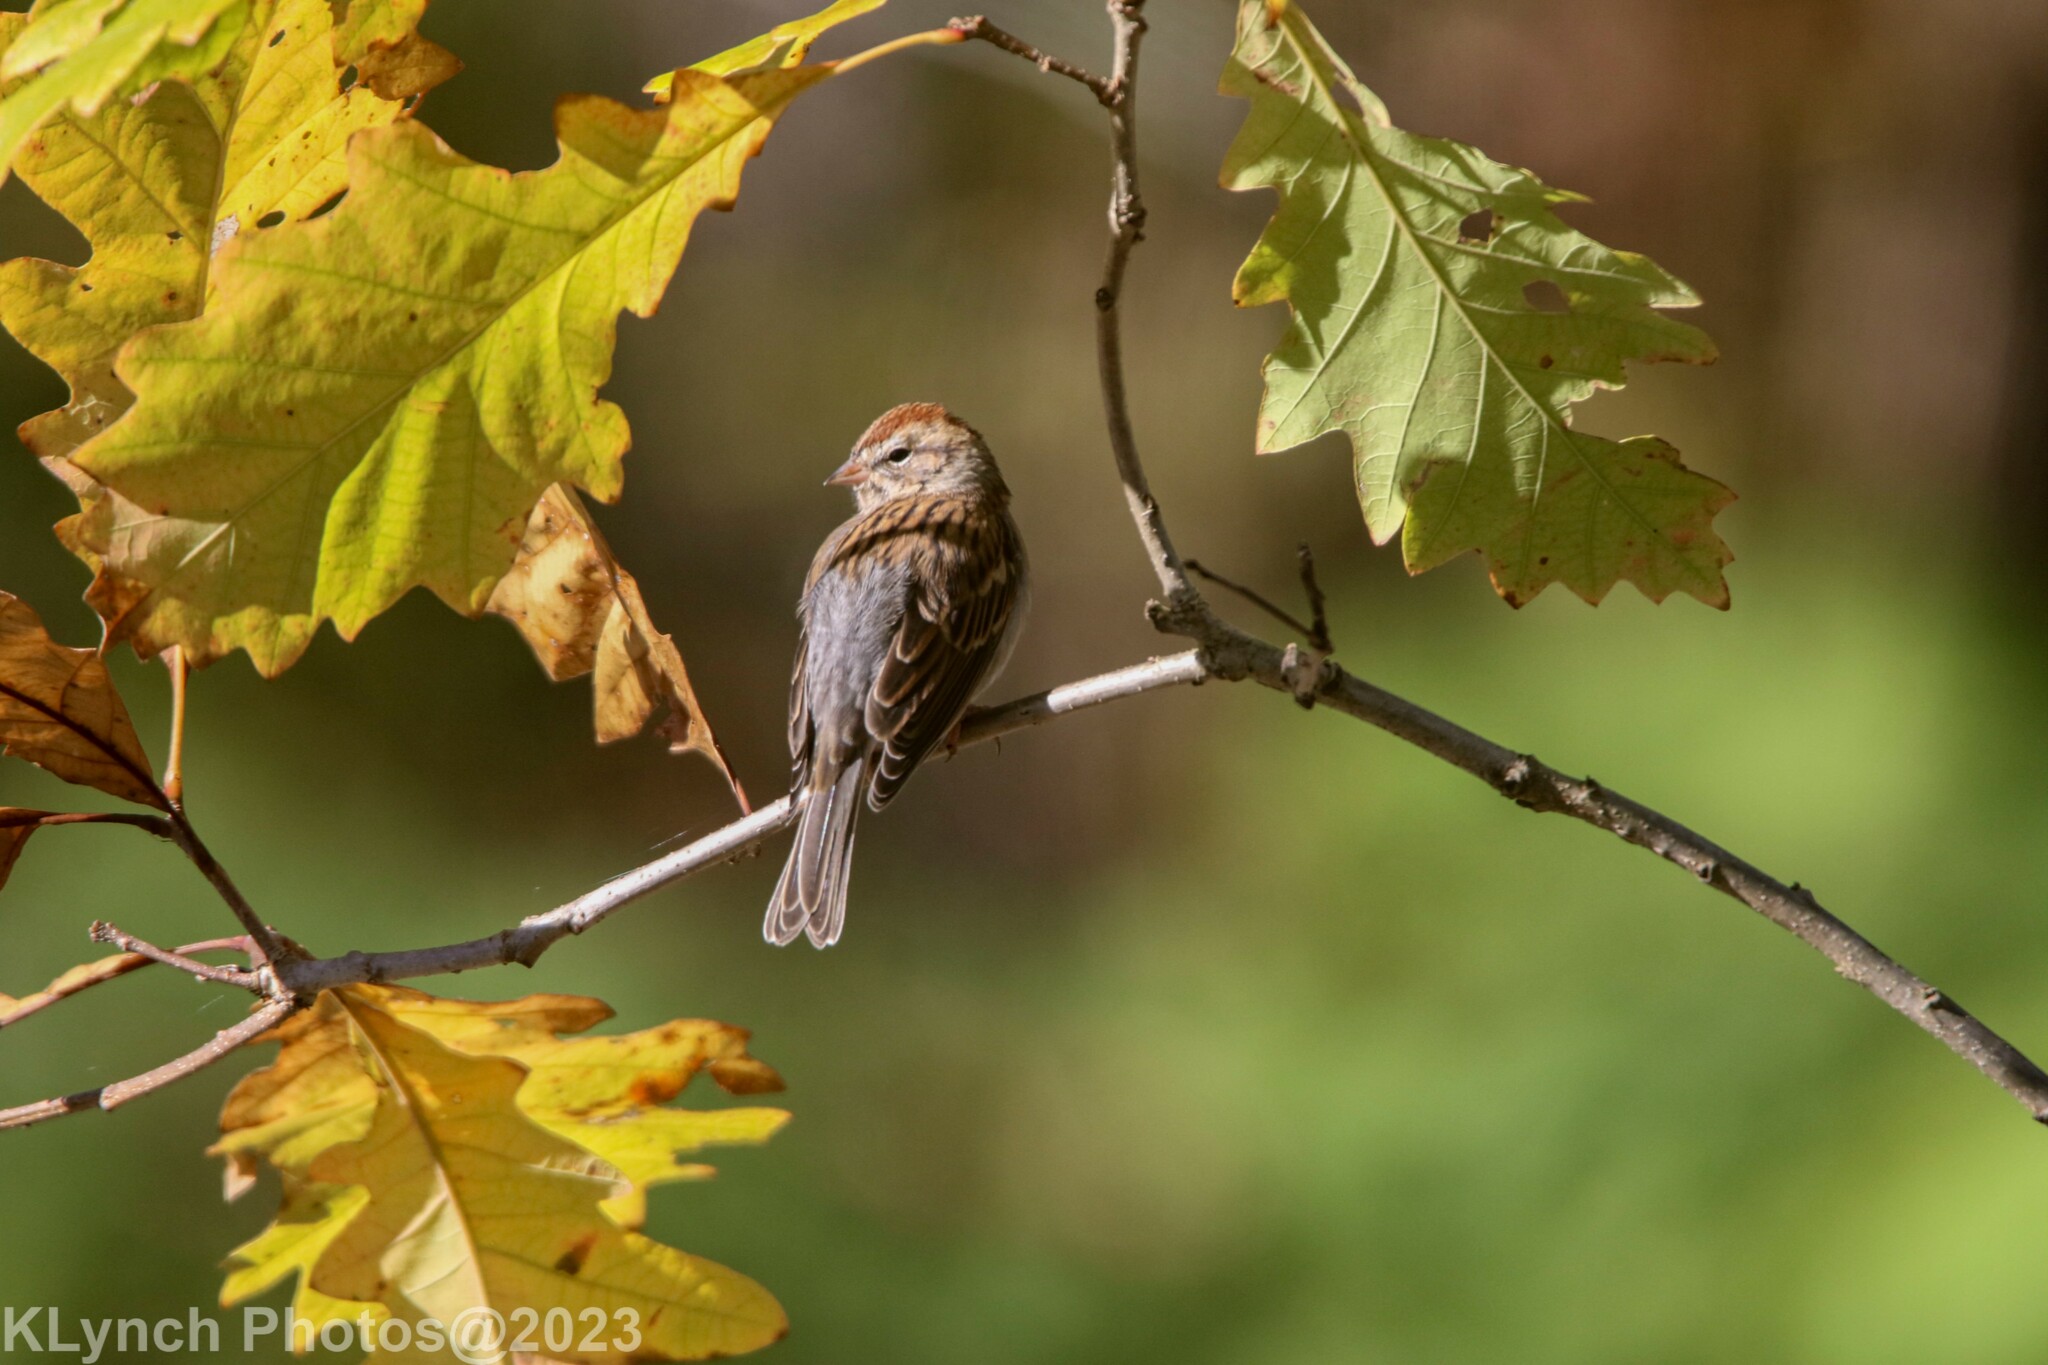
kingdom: Animalia
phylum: Chordata
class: Aves
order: Passeriformes
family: Passerellidae
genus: Spizella
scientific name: Spizella passerina
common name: Chipping sparrow
